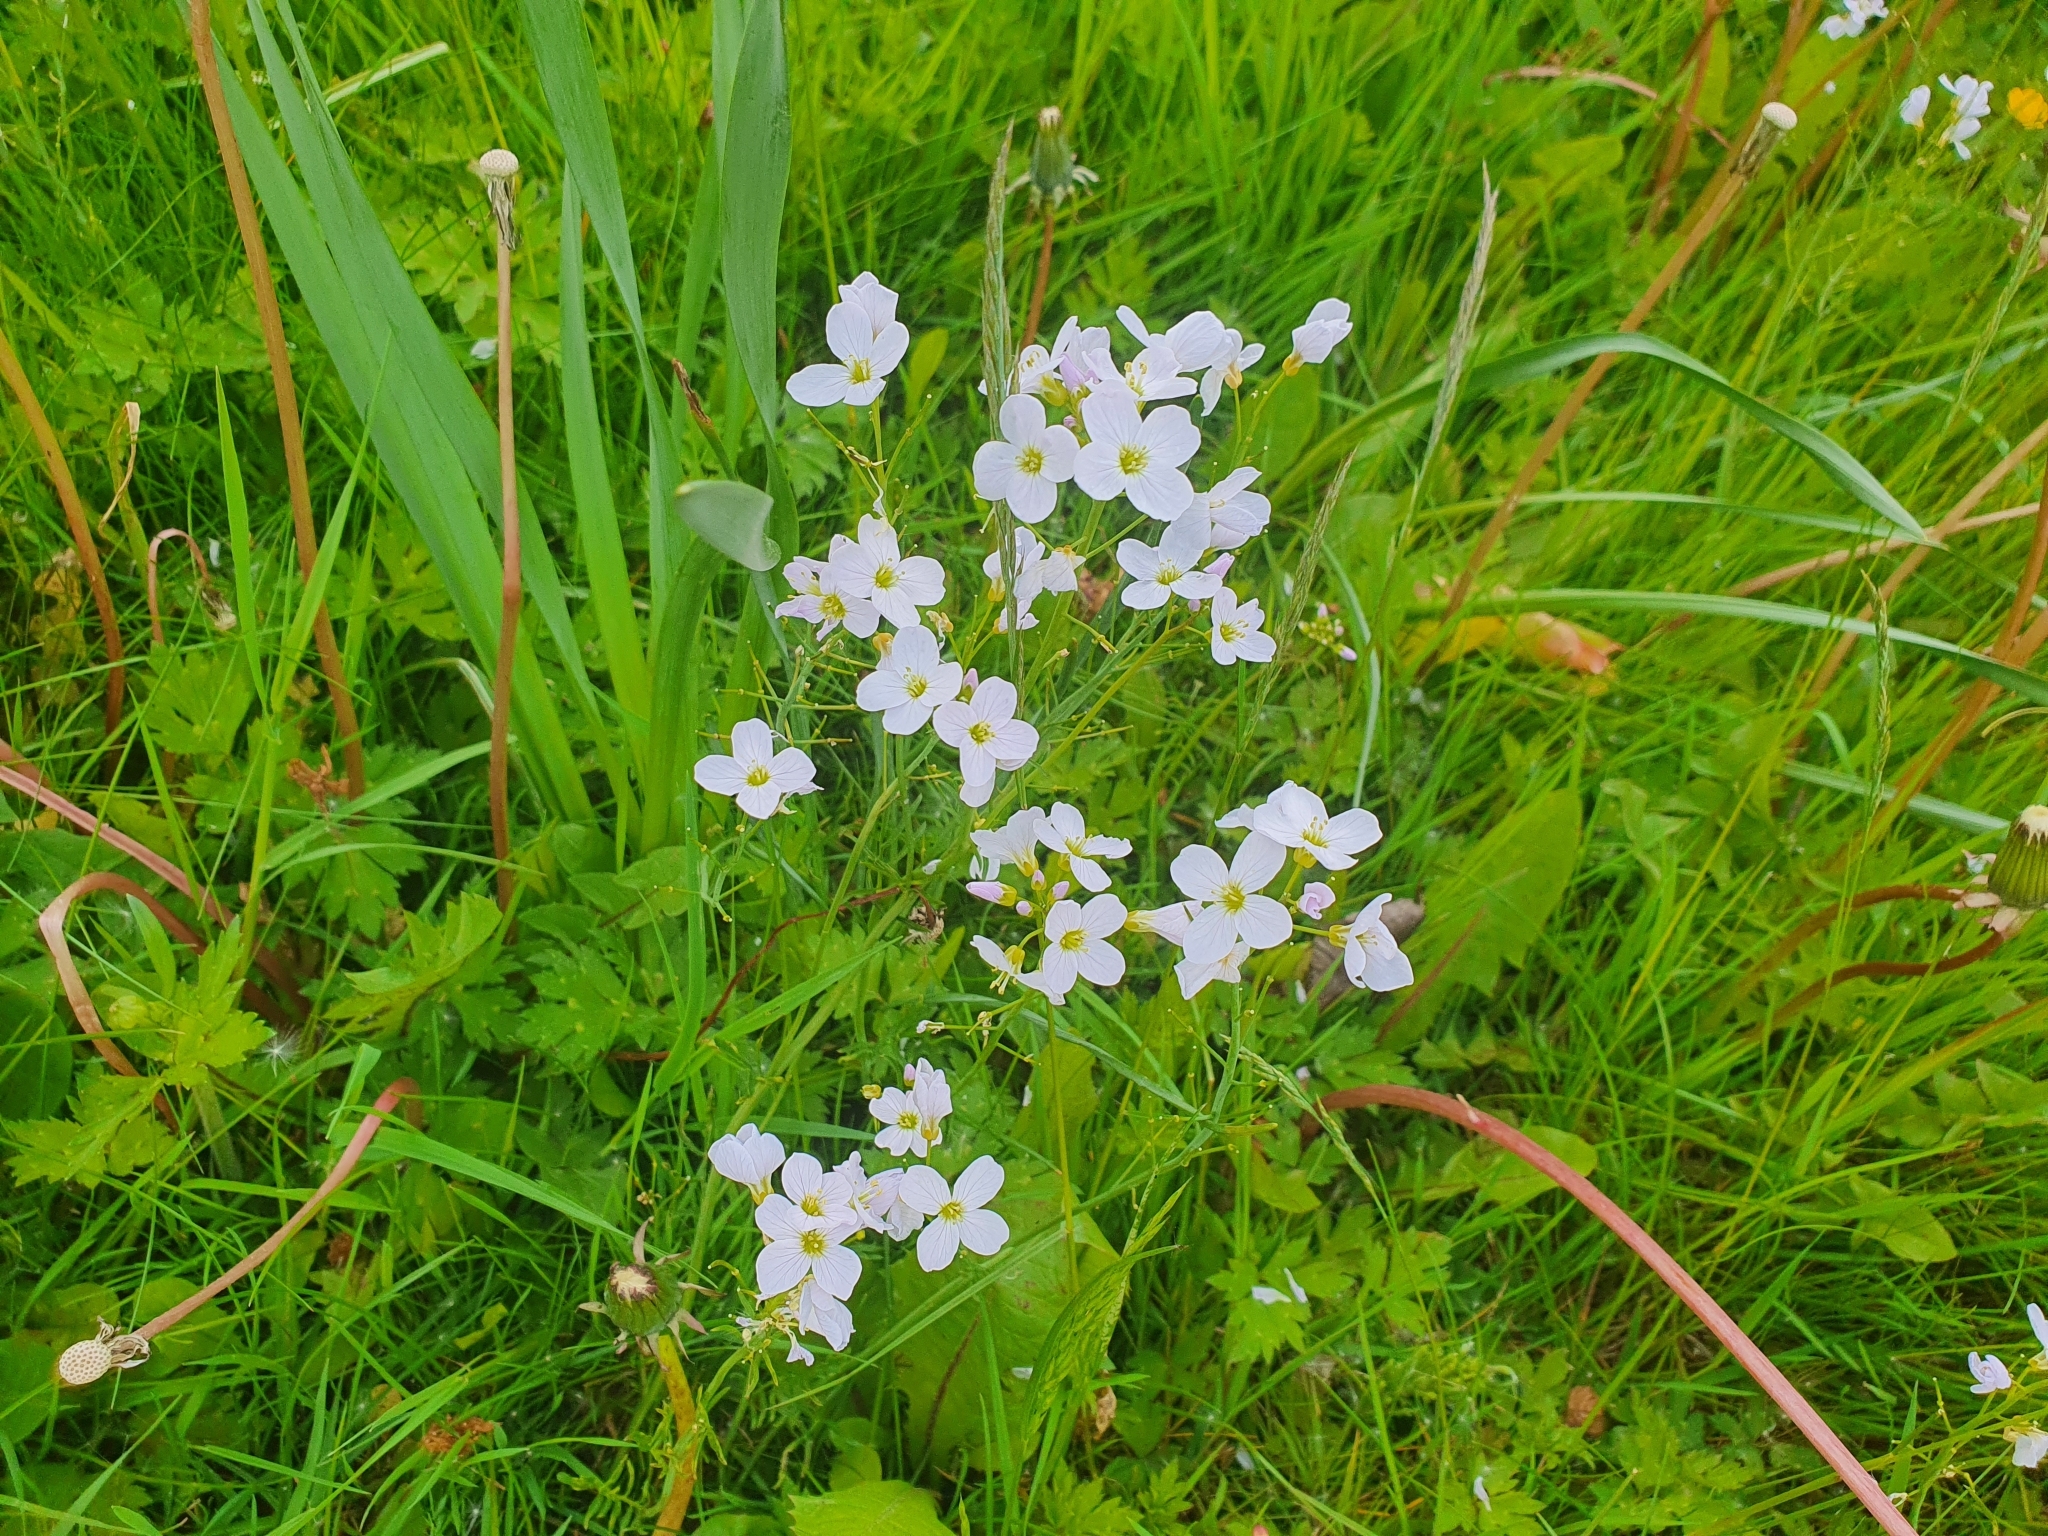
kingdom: Plantae
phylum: Tracheophyta
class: Magnoliopsida
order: Brassicales
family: Brassicaceae
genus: Cardamine
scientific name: Cardamine pratensis
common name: Cuckoo flower
